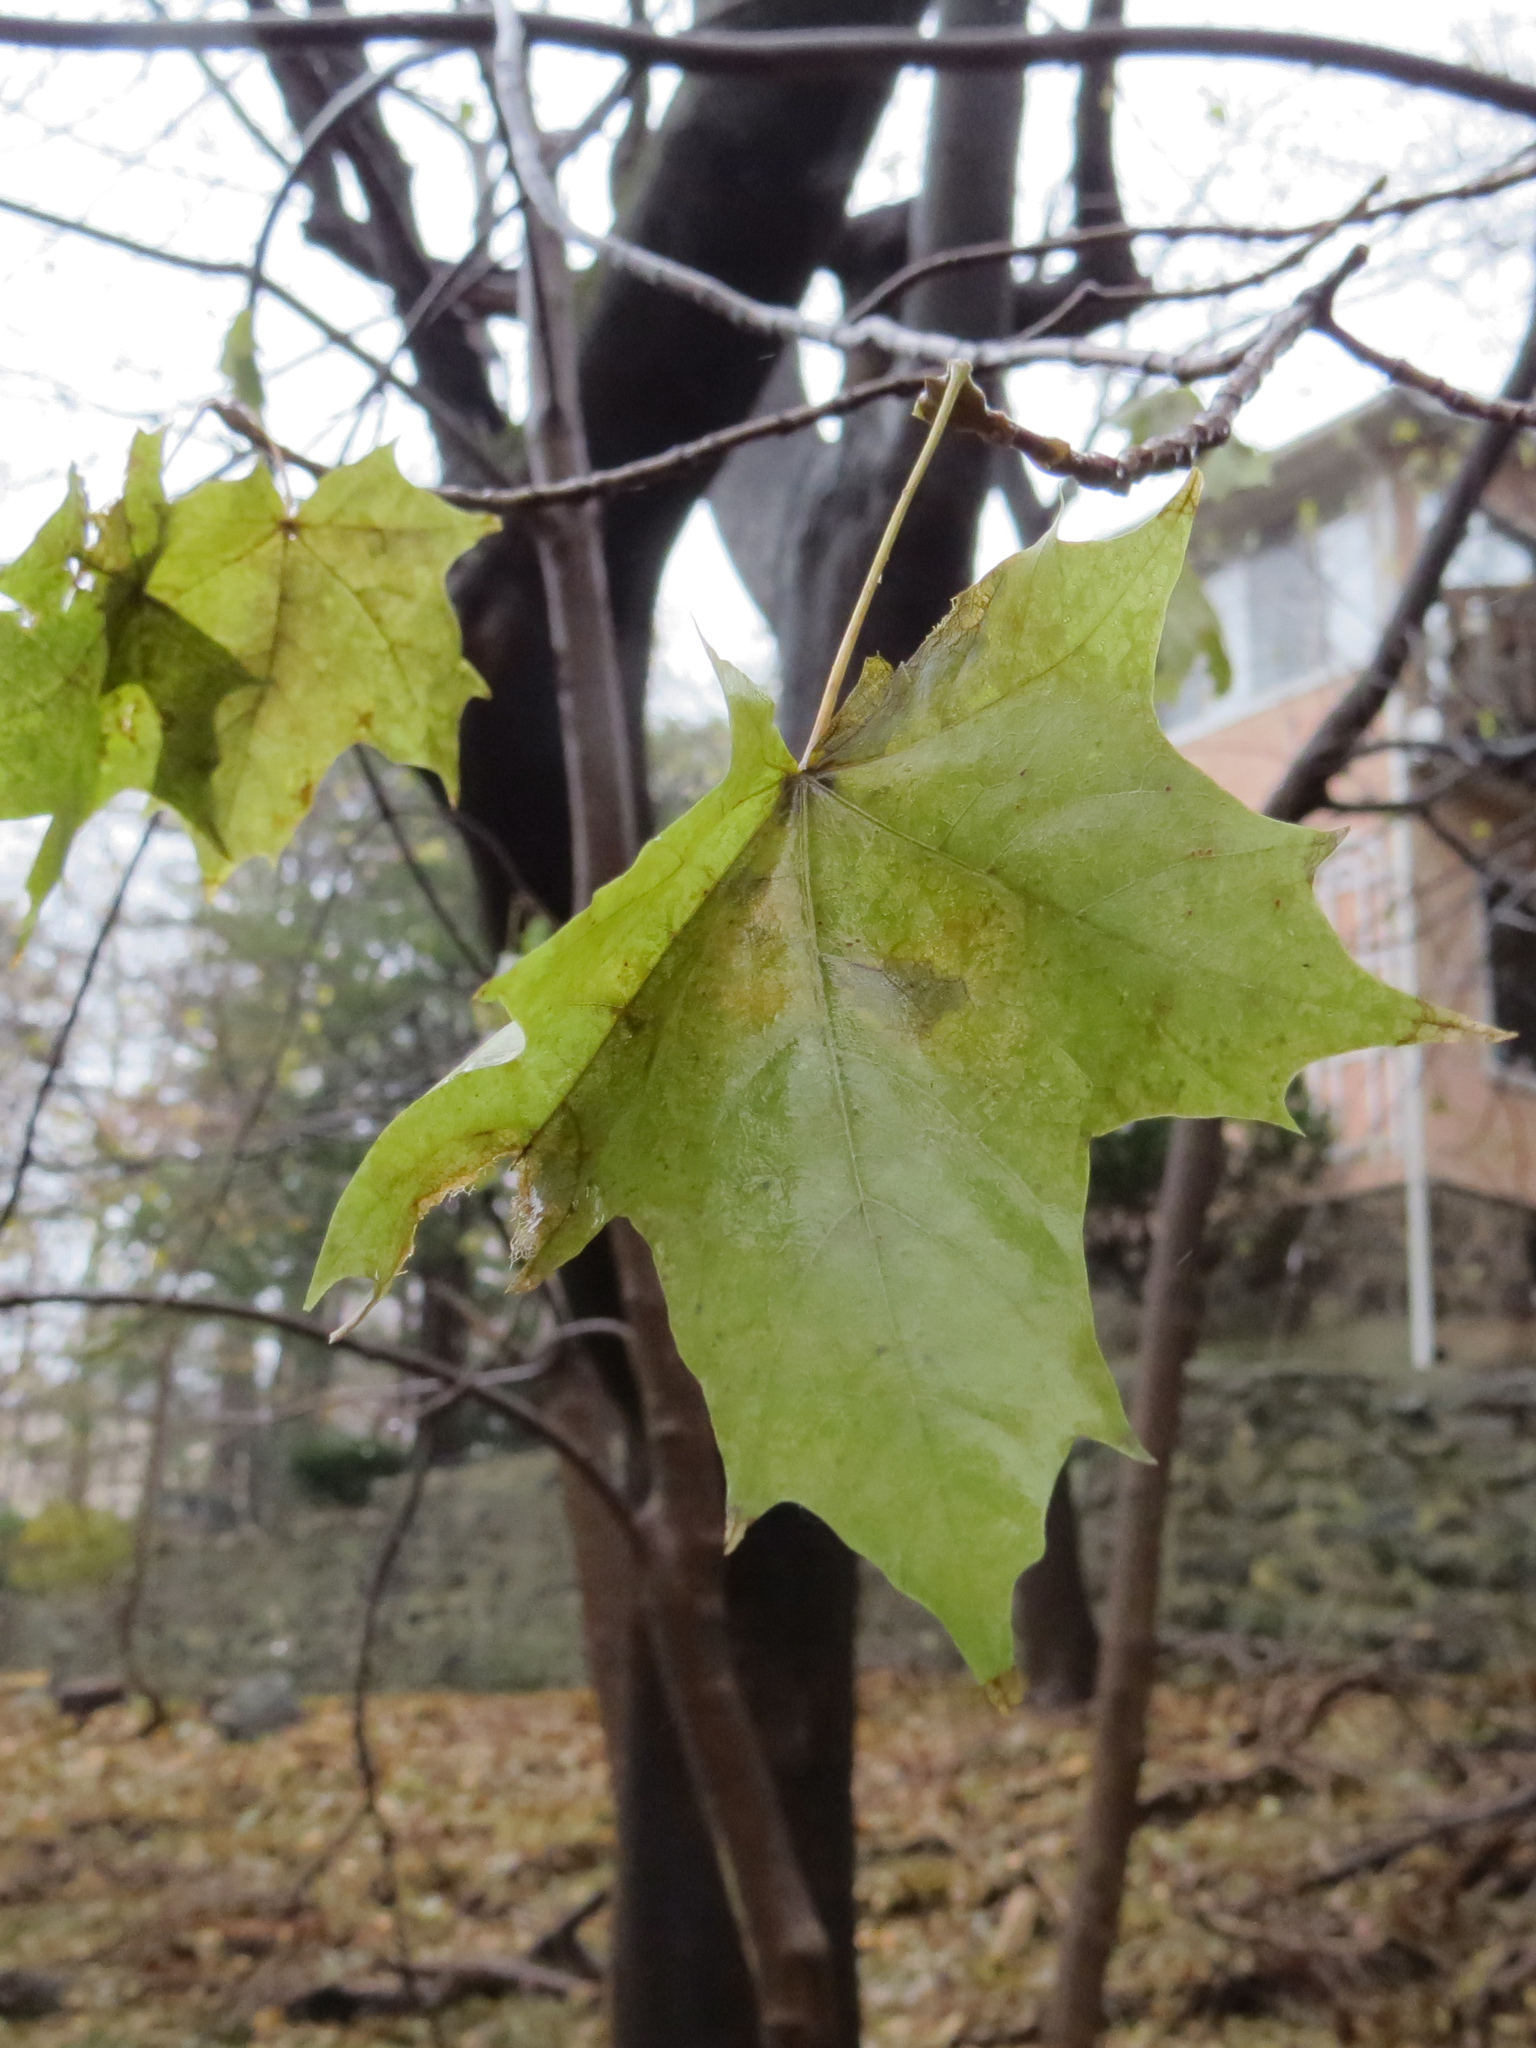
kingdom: Plantae
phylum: Tracheophyta
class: Magnoliopsida
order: Sapindales
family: Sapindaceae
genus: Acer
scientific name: Acer platanoides
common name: Norway maple
